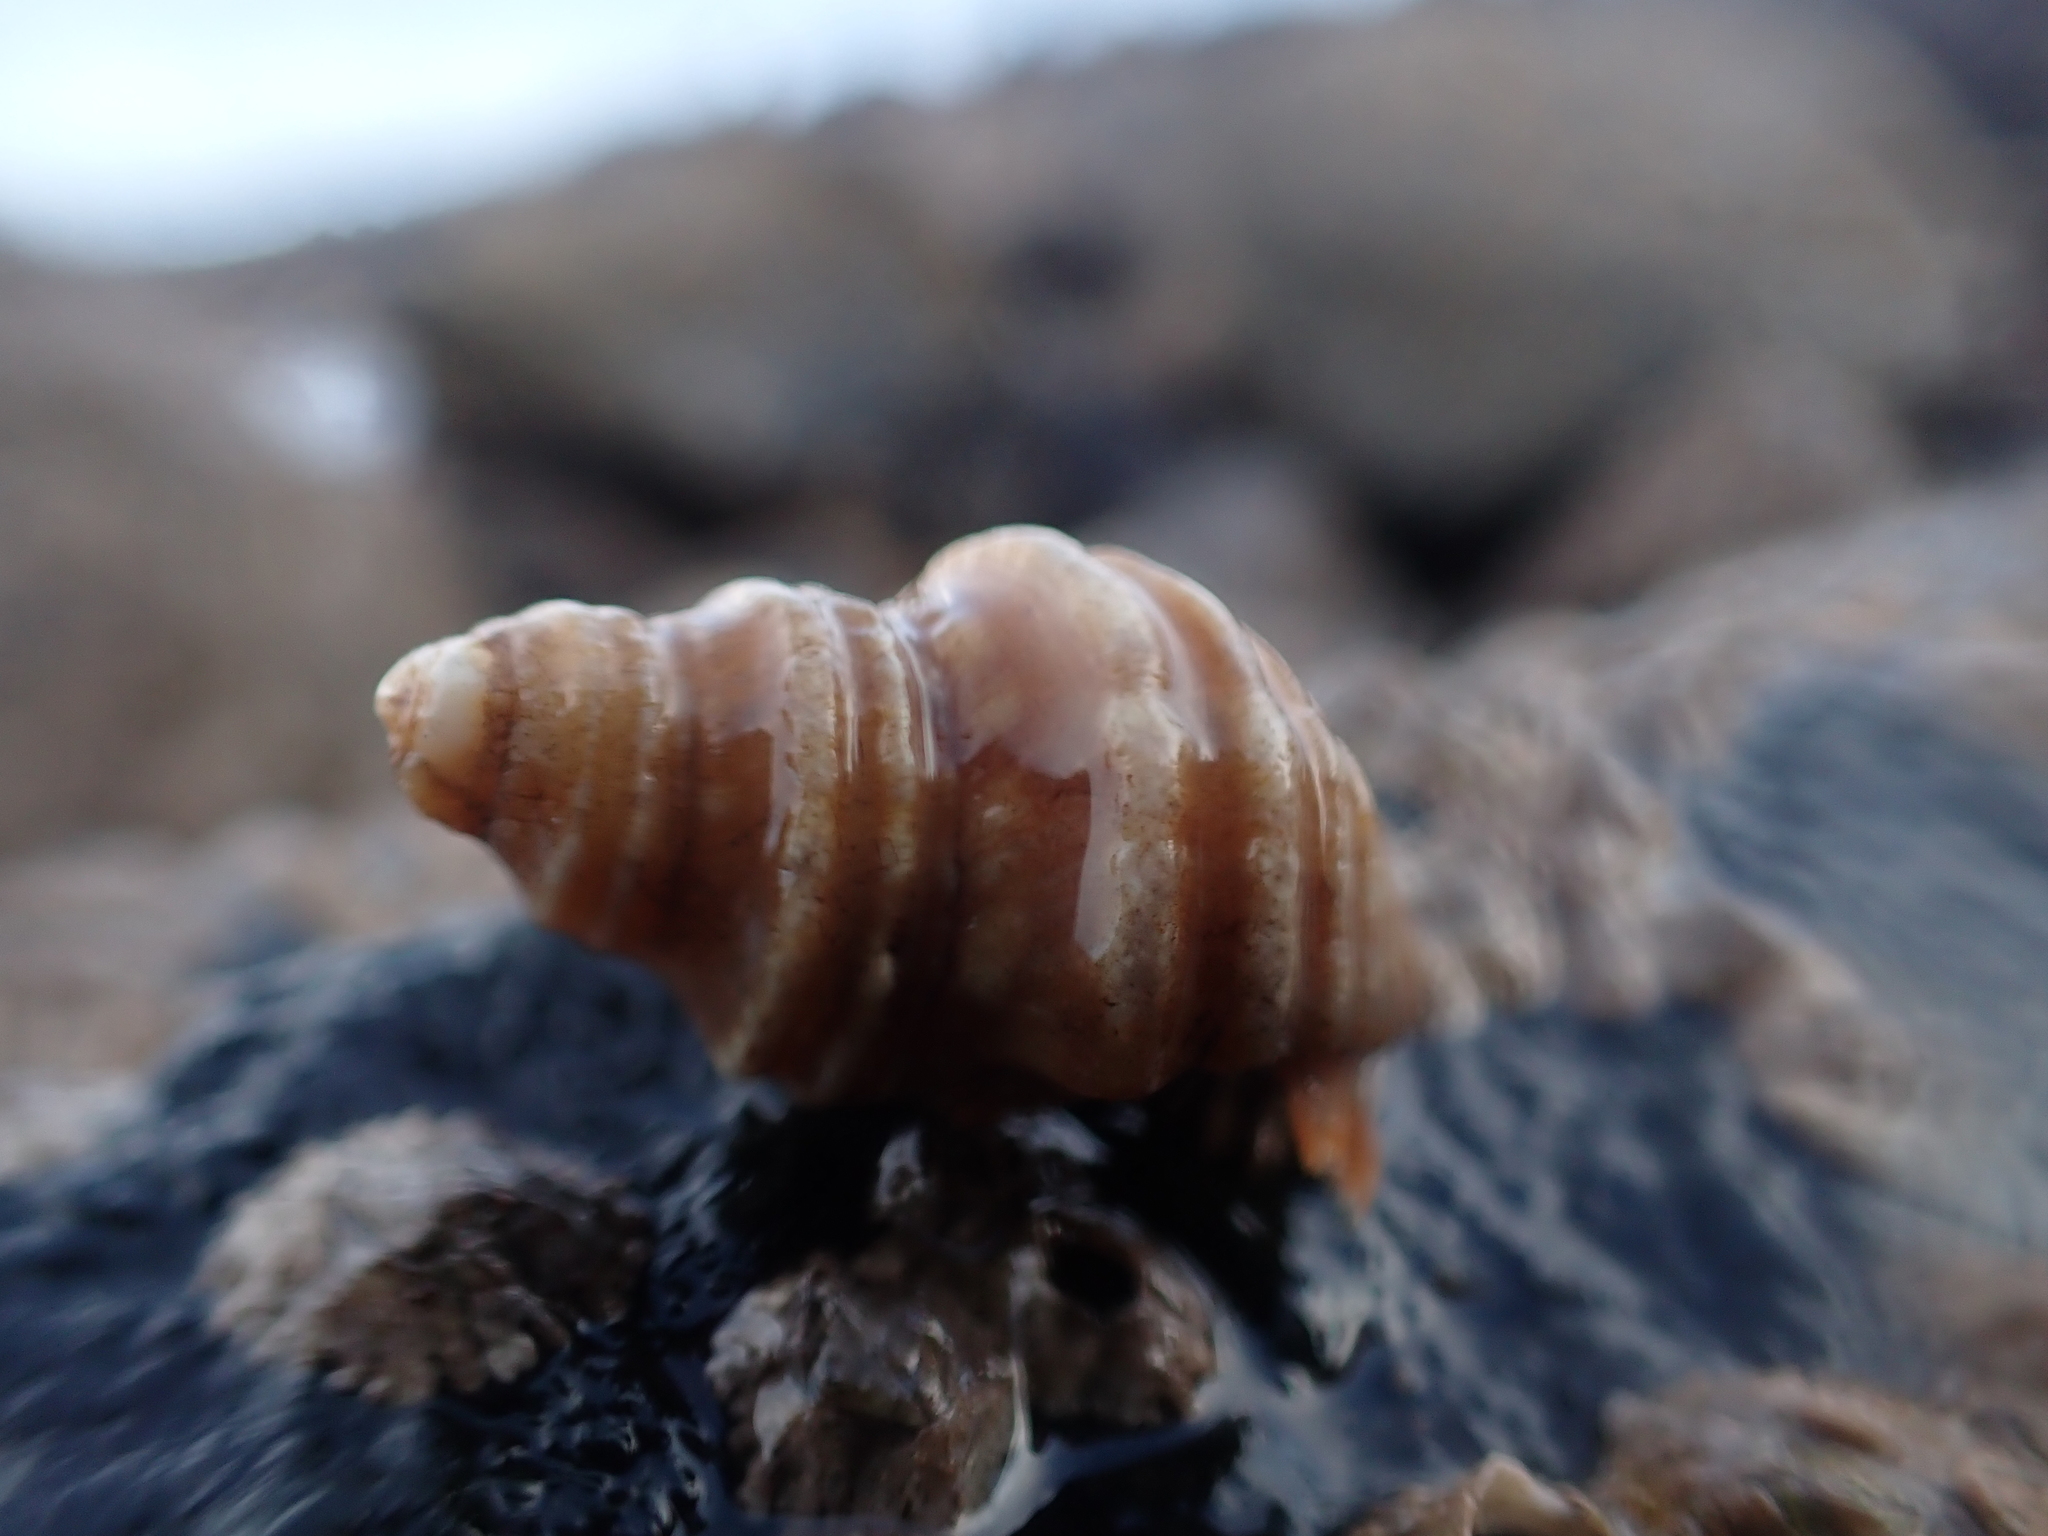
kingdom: Animalia
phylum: Mollusca
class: Gastropoda
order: Neogastropoda
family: Buccinidae
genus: Neptunea
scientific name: Neptunea decemcostata
